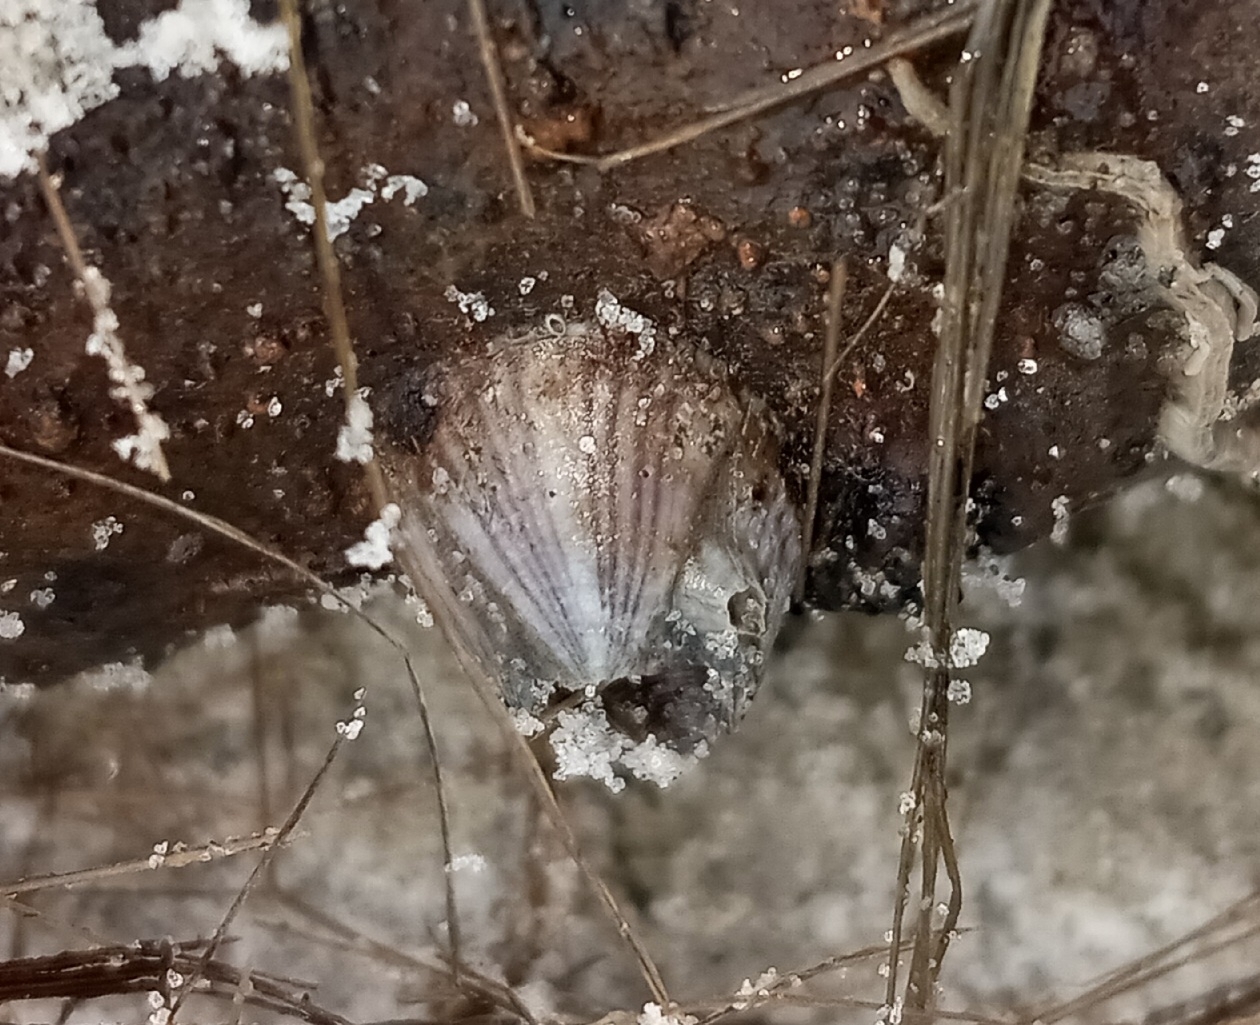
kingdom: Animalia
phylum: Arthropoda
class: Maxillopoda
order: Sessilia
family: Balanidae
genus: Amphibalanus
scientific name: Amphibalanus amphitrite
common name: Striped acorn barnacle
